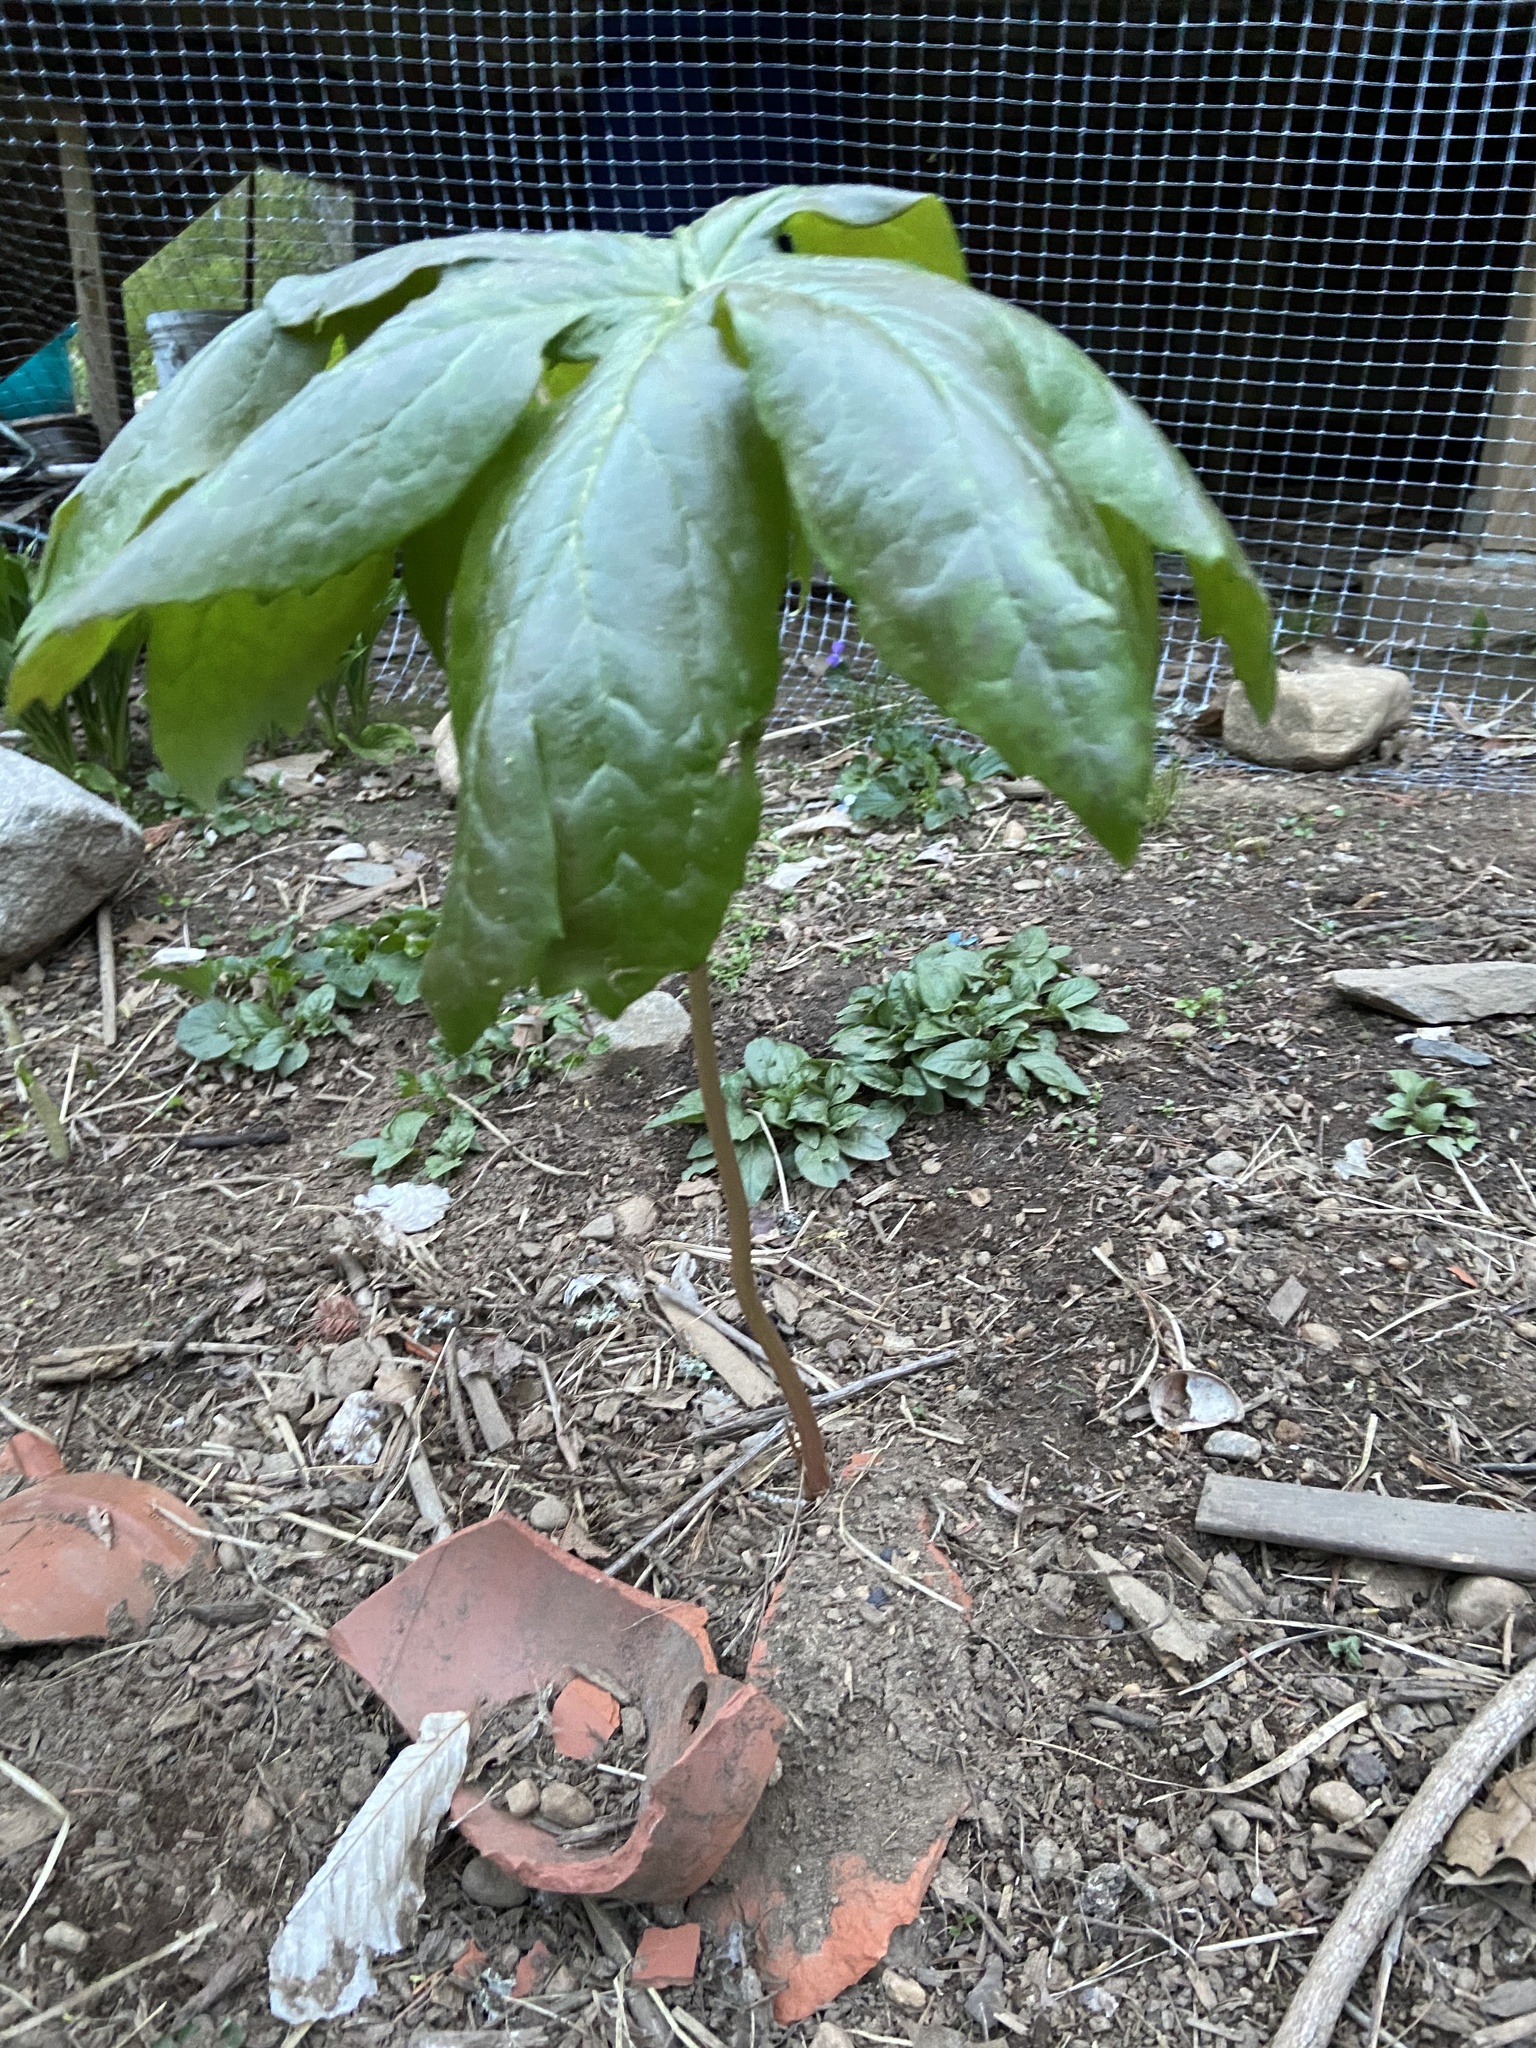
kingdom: Plantae
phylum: Tracheophyta
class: Magnoliopsida
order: Ranunculales
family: Berberidaceae
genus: Podophyllum
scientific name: Podophyllum peltatum
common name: Wild mandrake
